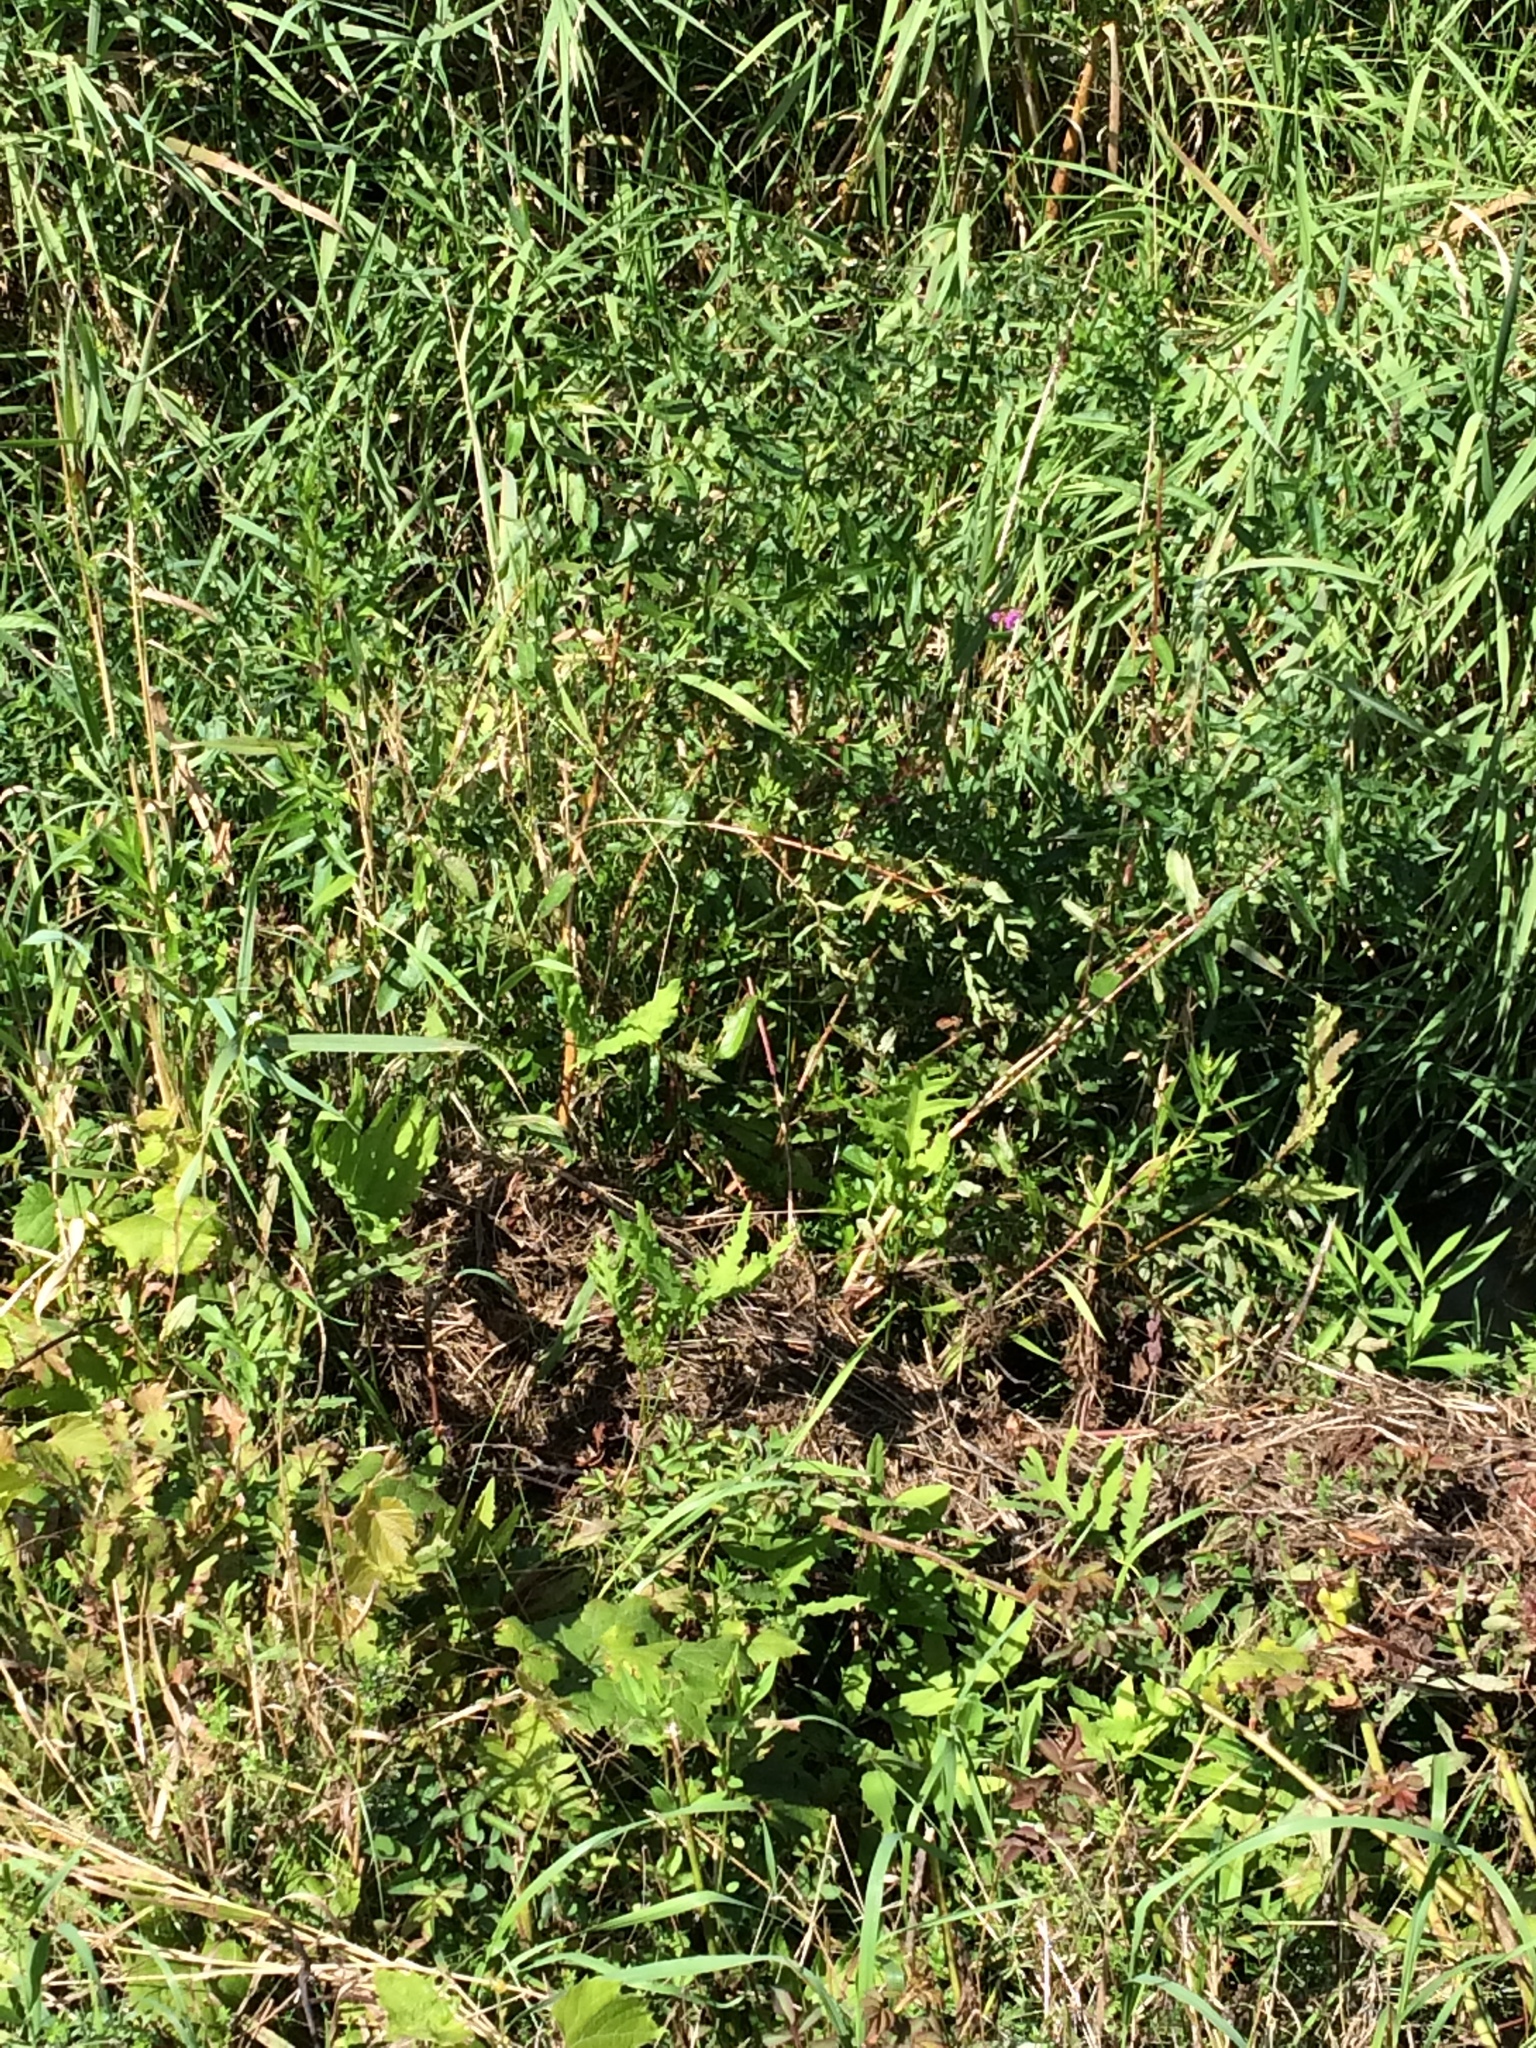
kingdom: Plantae
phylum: Tracheophyta
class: Magnoliopsida
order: Myrtales
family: Lythraceae
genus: Lythrum
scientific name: Lythrum salicaria
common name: Purple loosestrife
